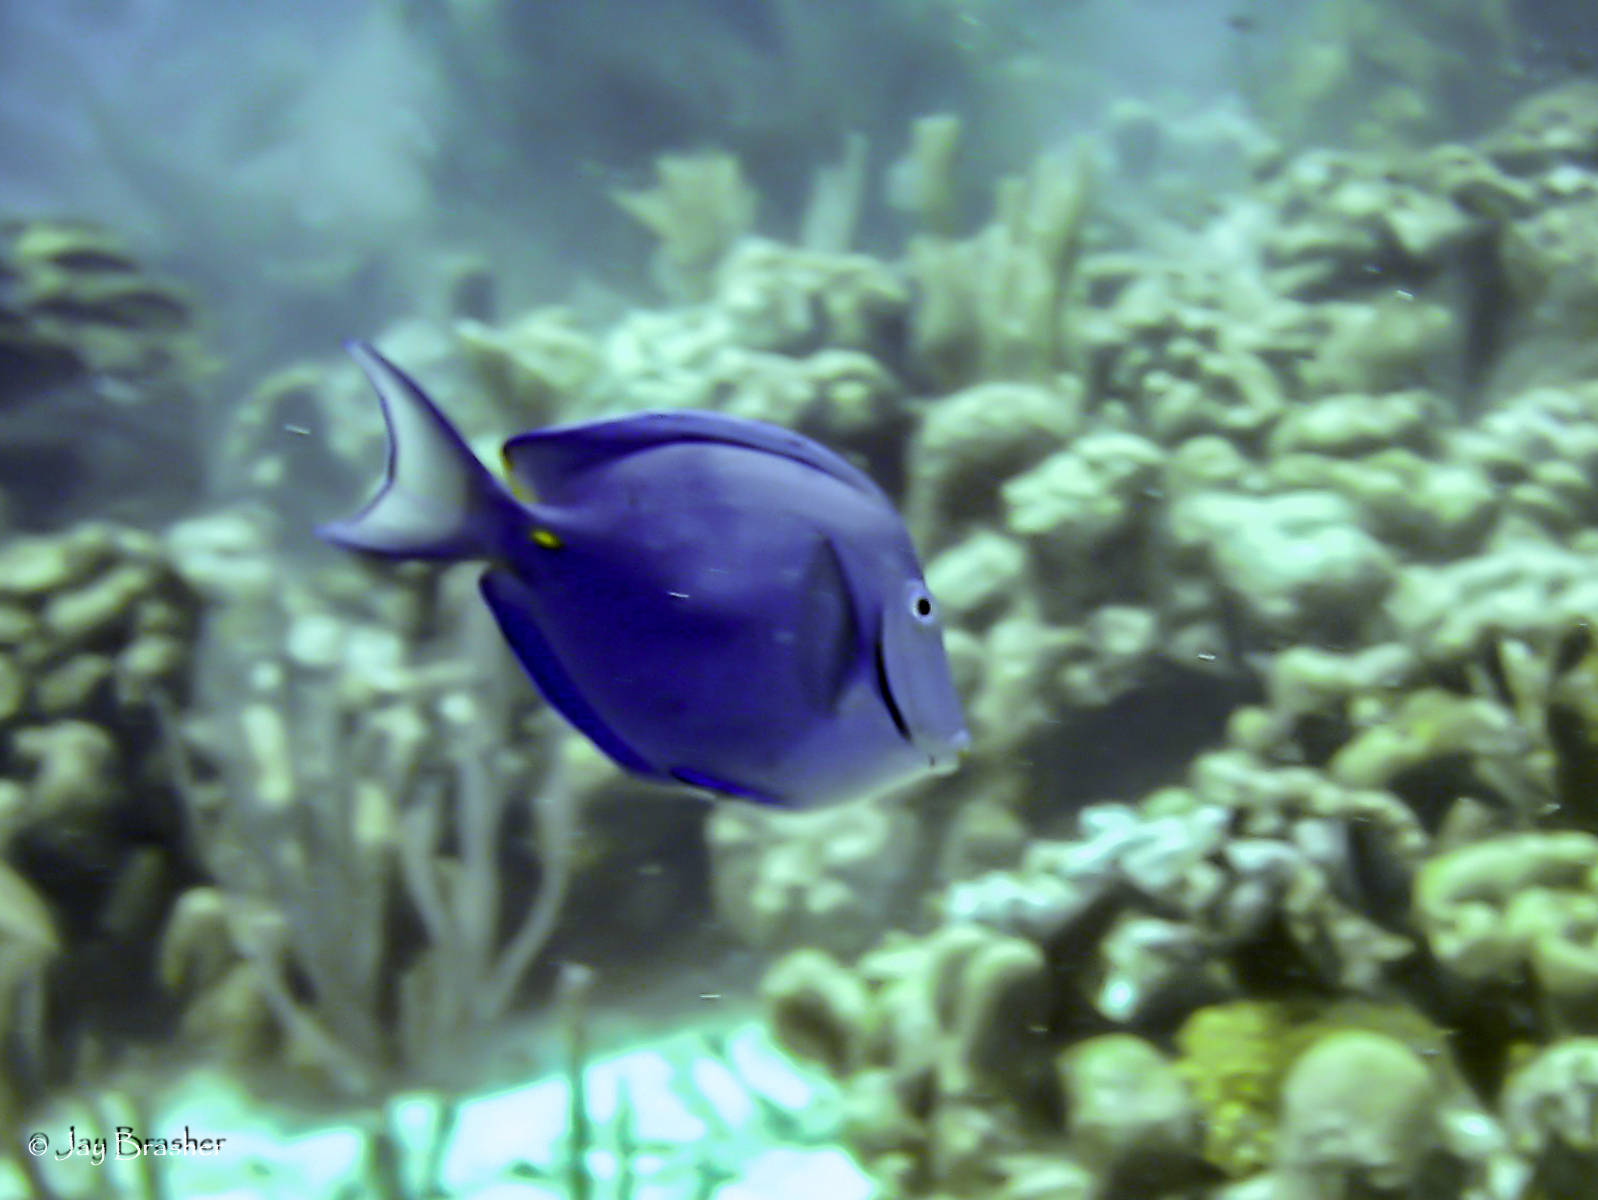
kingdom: Animalia
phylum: Chordata
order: Perciformes
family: Acanthuridae
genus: Acanthurus
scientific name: Acanthurus coeruleus
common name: Blue tang
